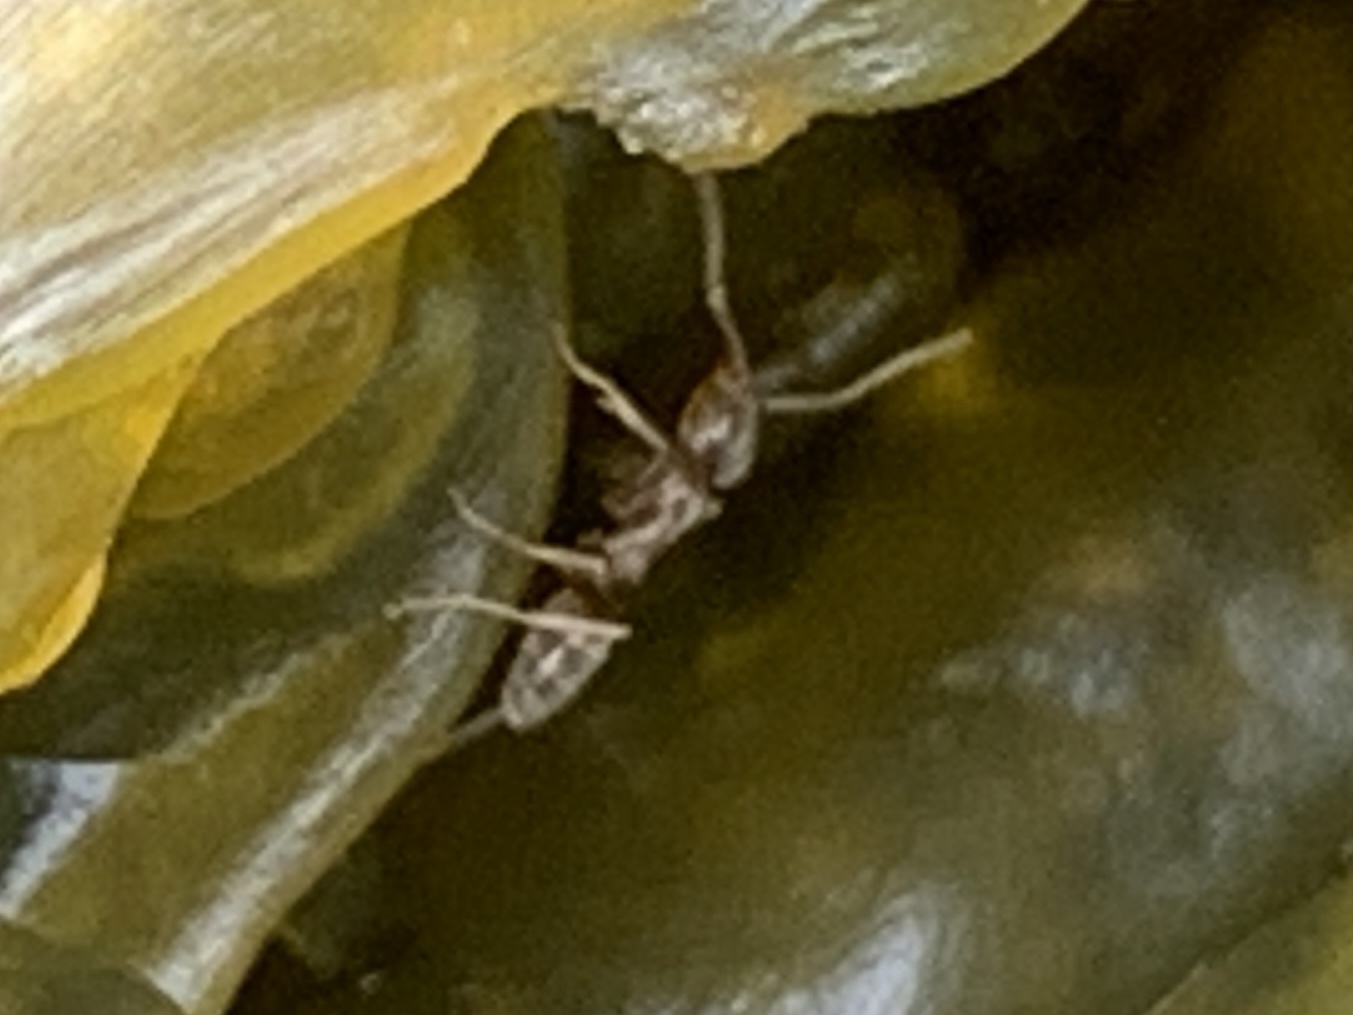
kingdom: Animalia
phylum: Arthropoda
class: Insecta
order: Hymenoptera
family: Formicidae
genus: Linepithema
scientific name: Linepithema humile
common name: Argentine ant
